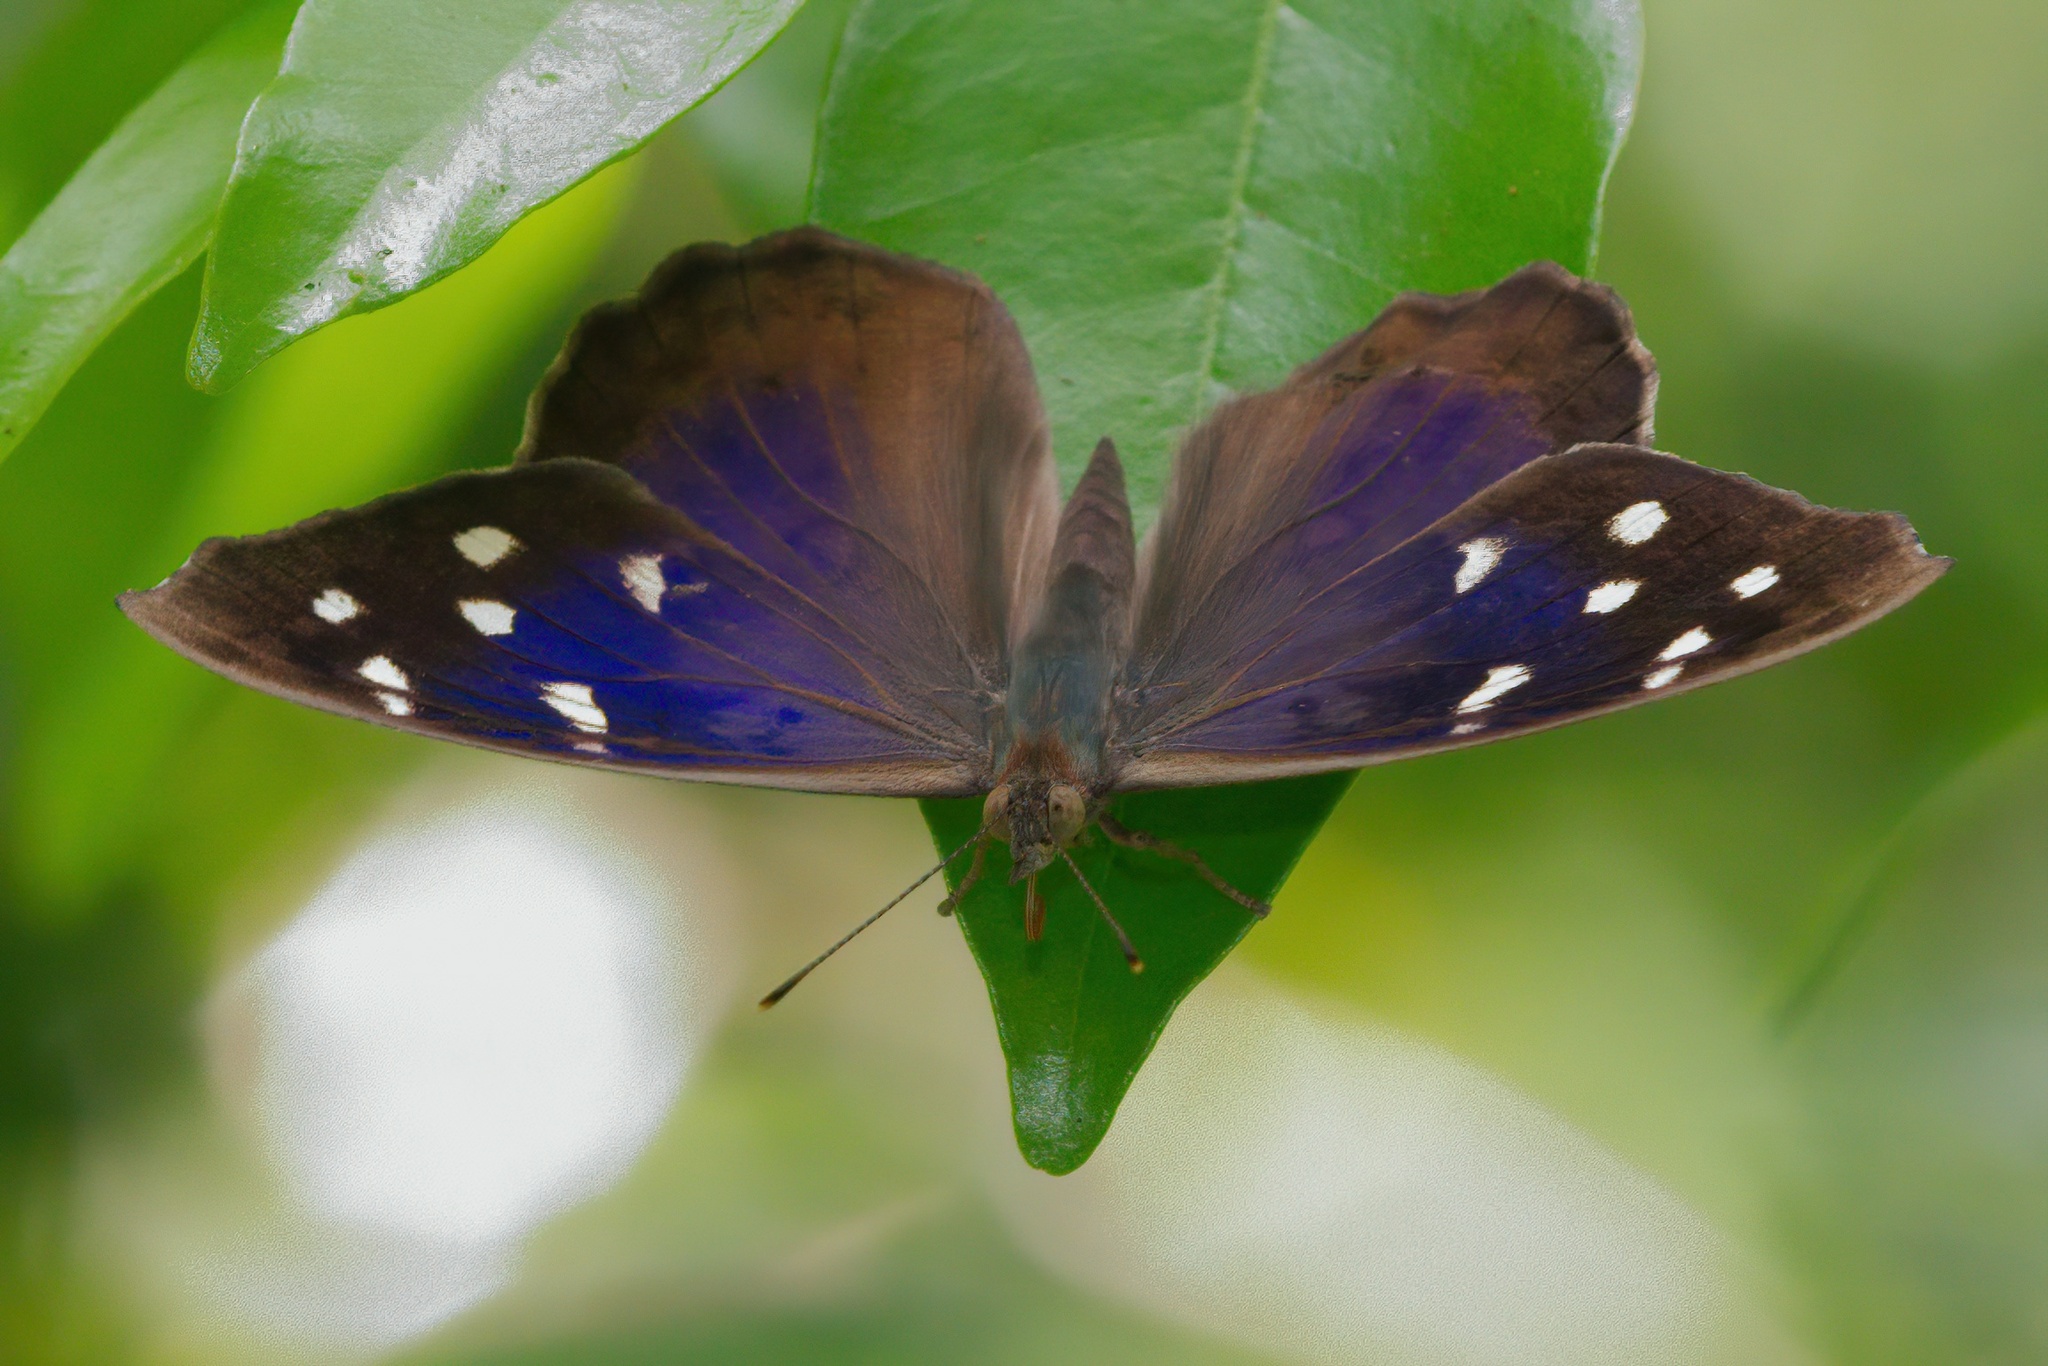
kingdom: Animalia
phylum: Arthropoda
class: Insecta
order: Lepidoptera
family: Nymphalidae
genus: Eunica
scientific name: Eunica tatila
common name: Florida purplewing
